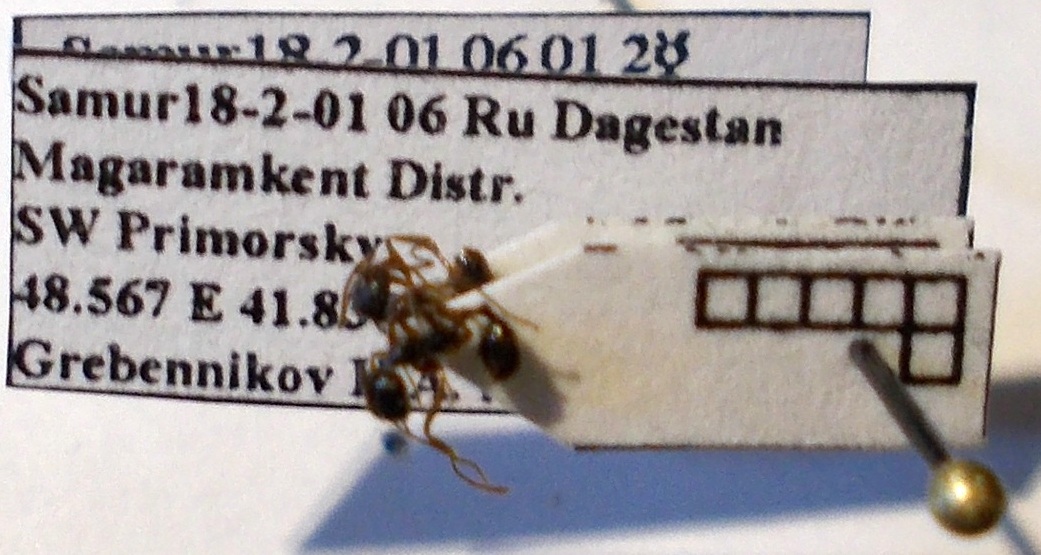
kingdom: Animalia
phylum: Arthropoda
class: Insecta
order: Hymenoptera
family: Formicidae
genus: Aphaenogaster
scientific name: Aphaenogaster
